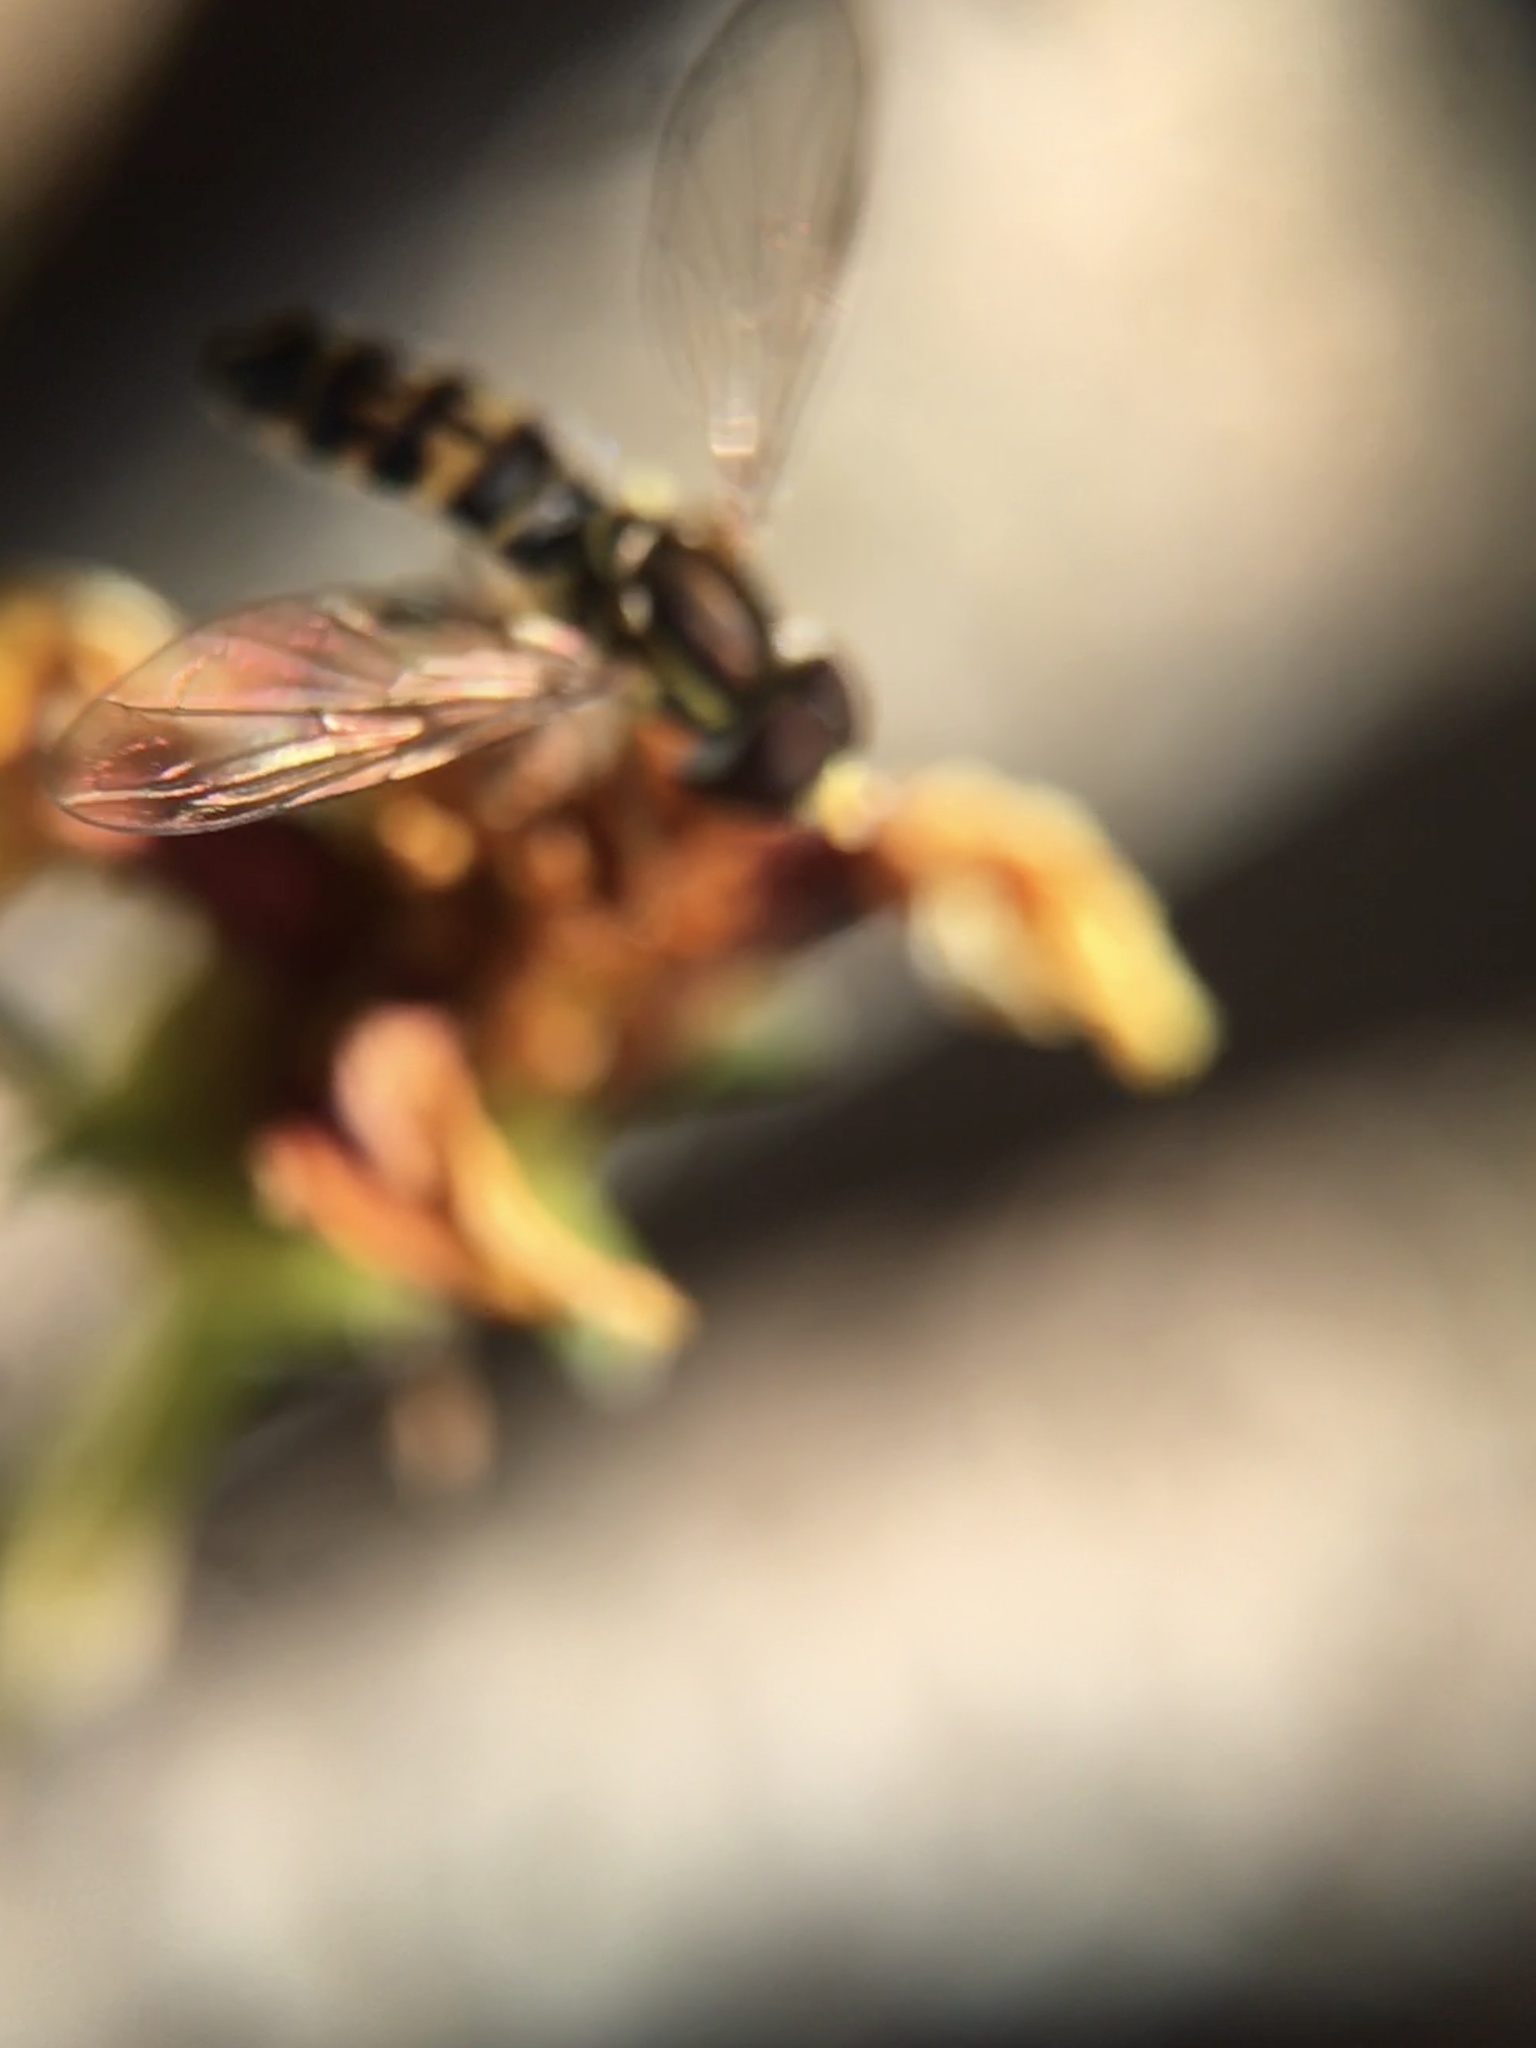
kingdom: Animalia
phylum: Arthropoda
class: Insecta
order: Diptera
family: Syrphidae
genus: Toxomerus
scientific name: Toxomerus occidentalis
